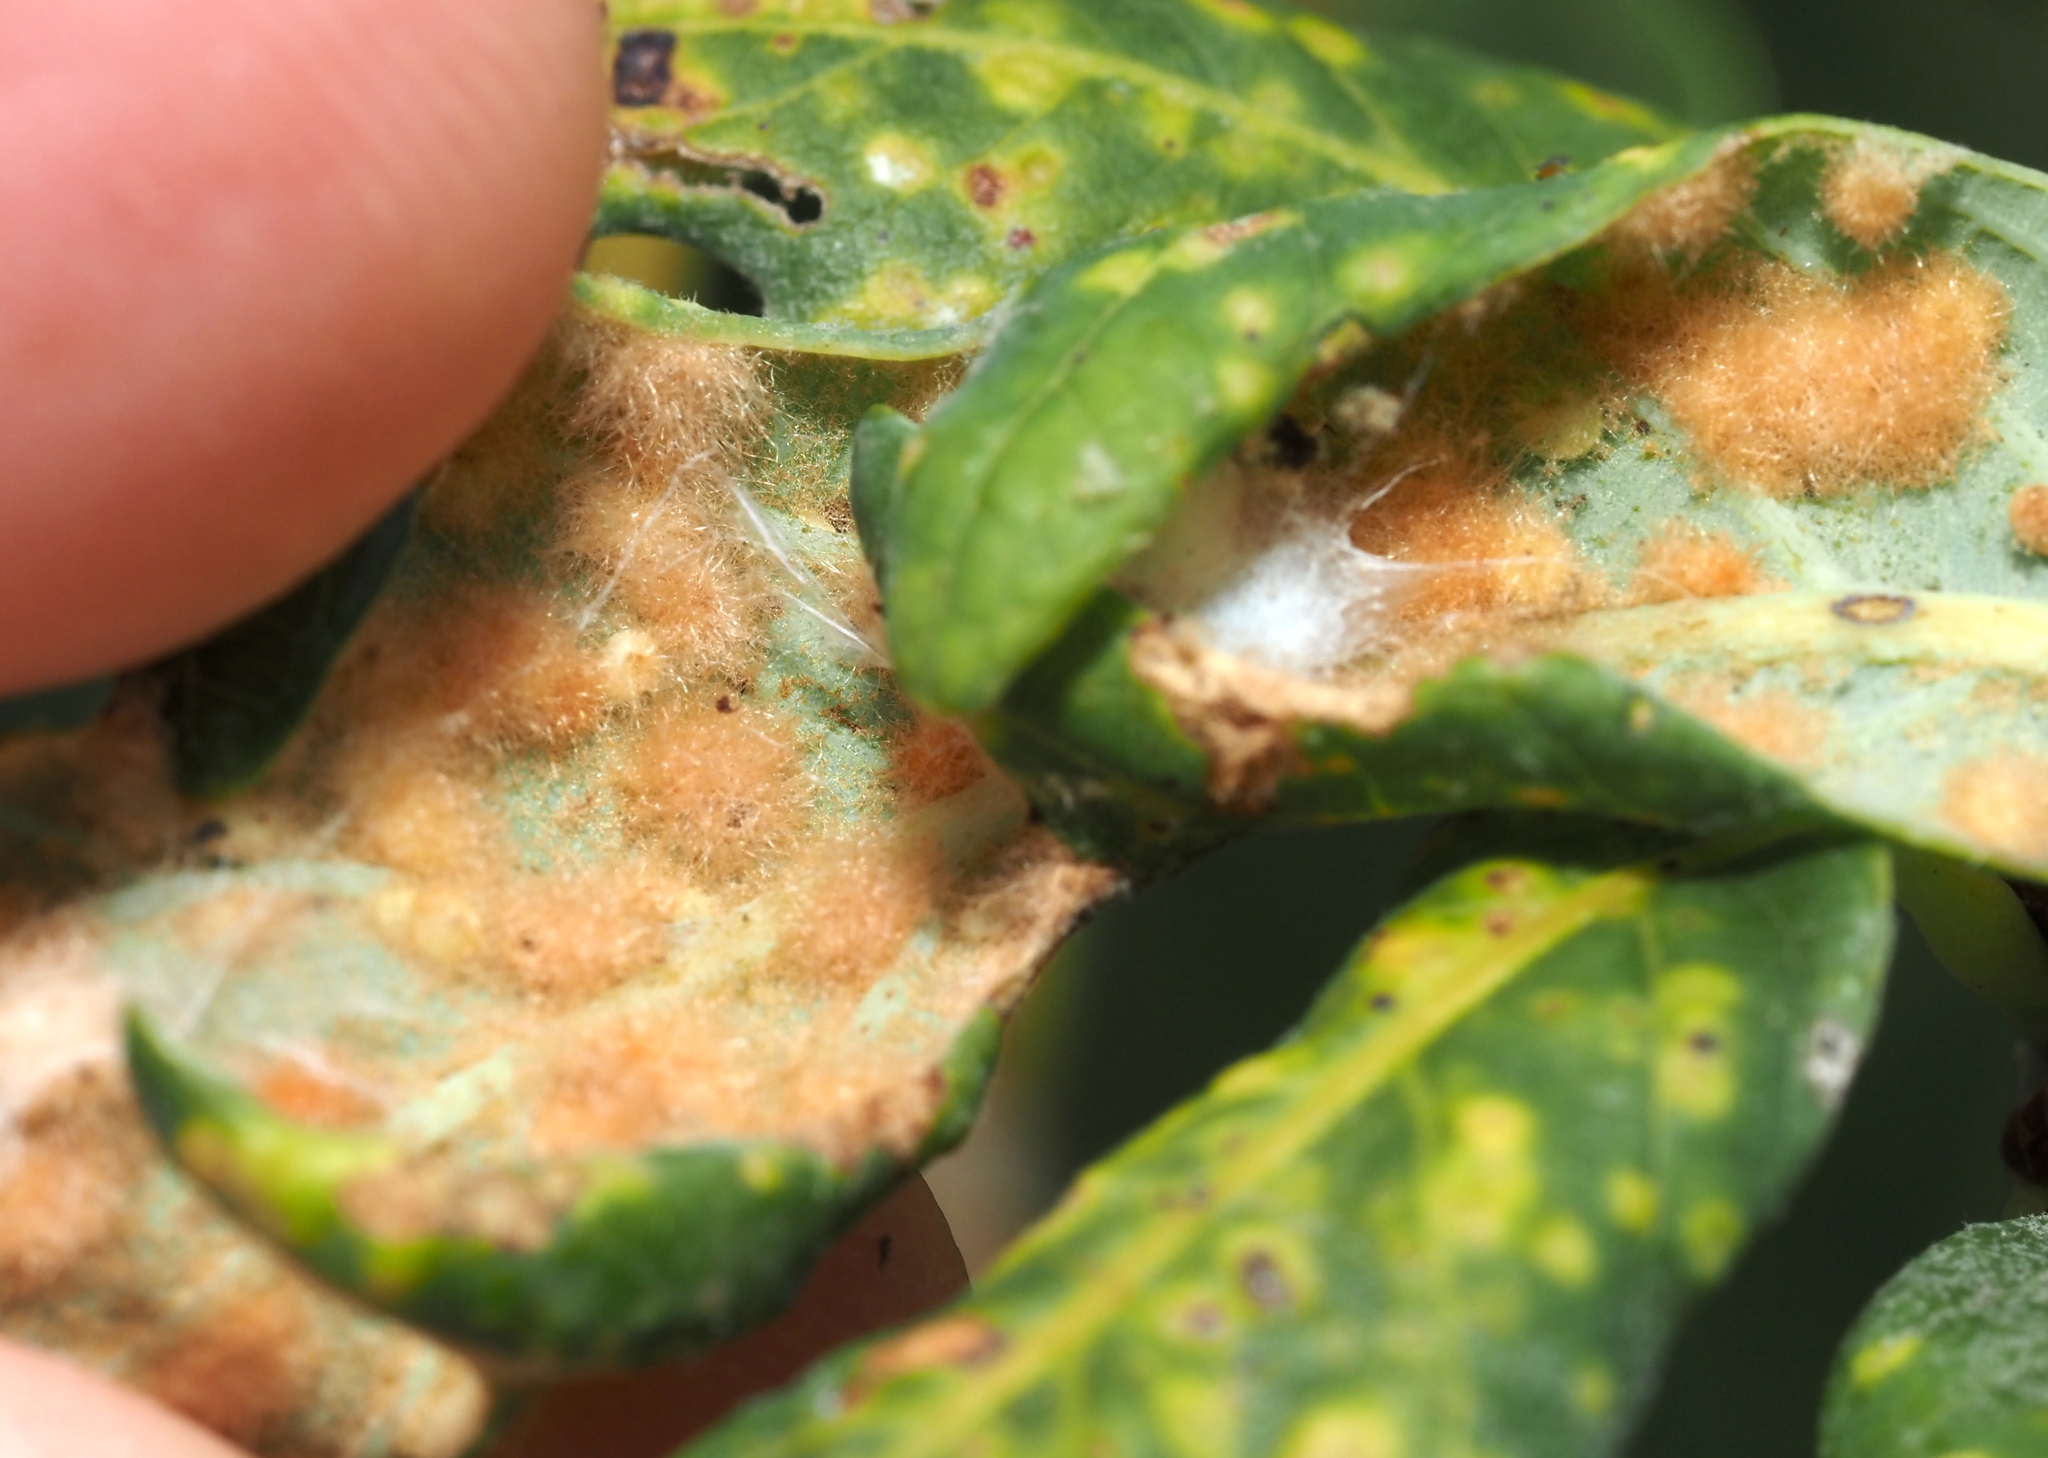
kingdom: Animalia
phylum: Arthropoda
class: Insecta
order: Hymenoptera
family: Cynipidae
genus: Neuroterus
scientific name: Neuroterus quercusverrucarum
